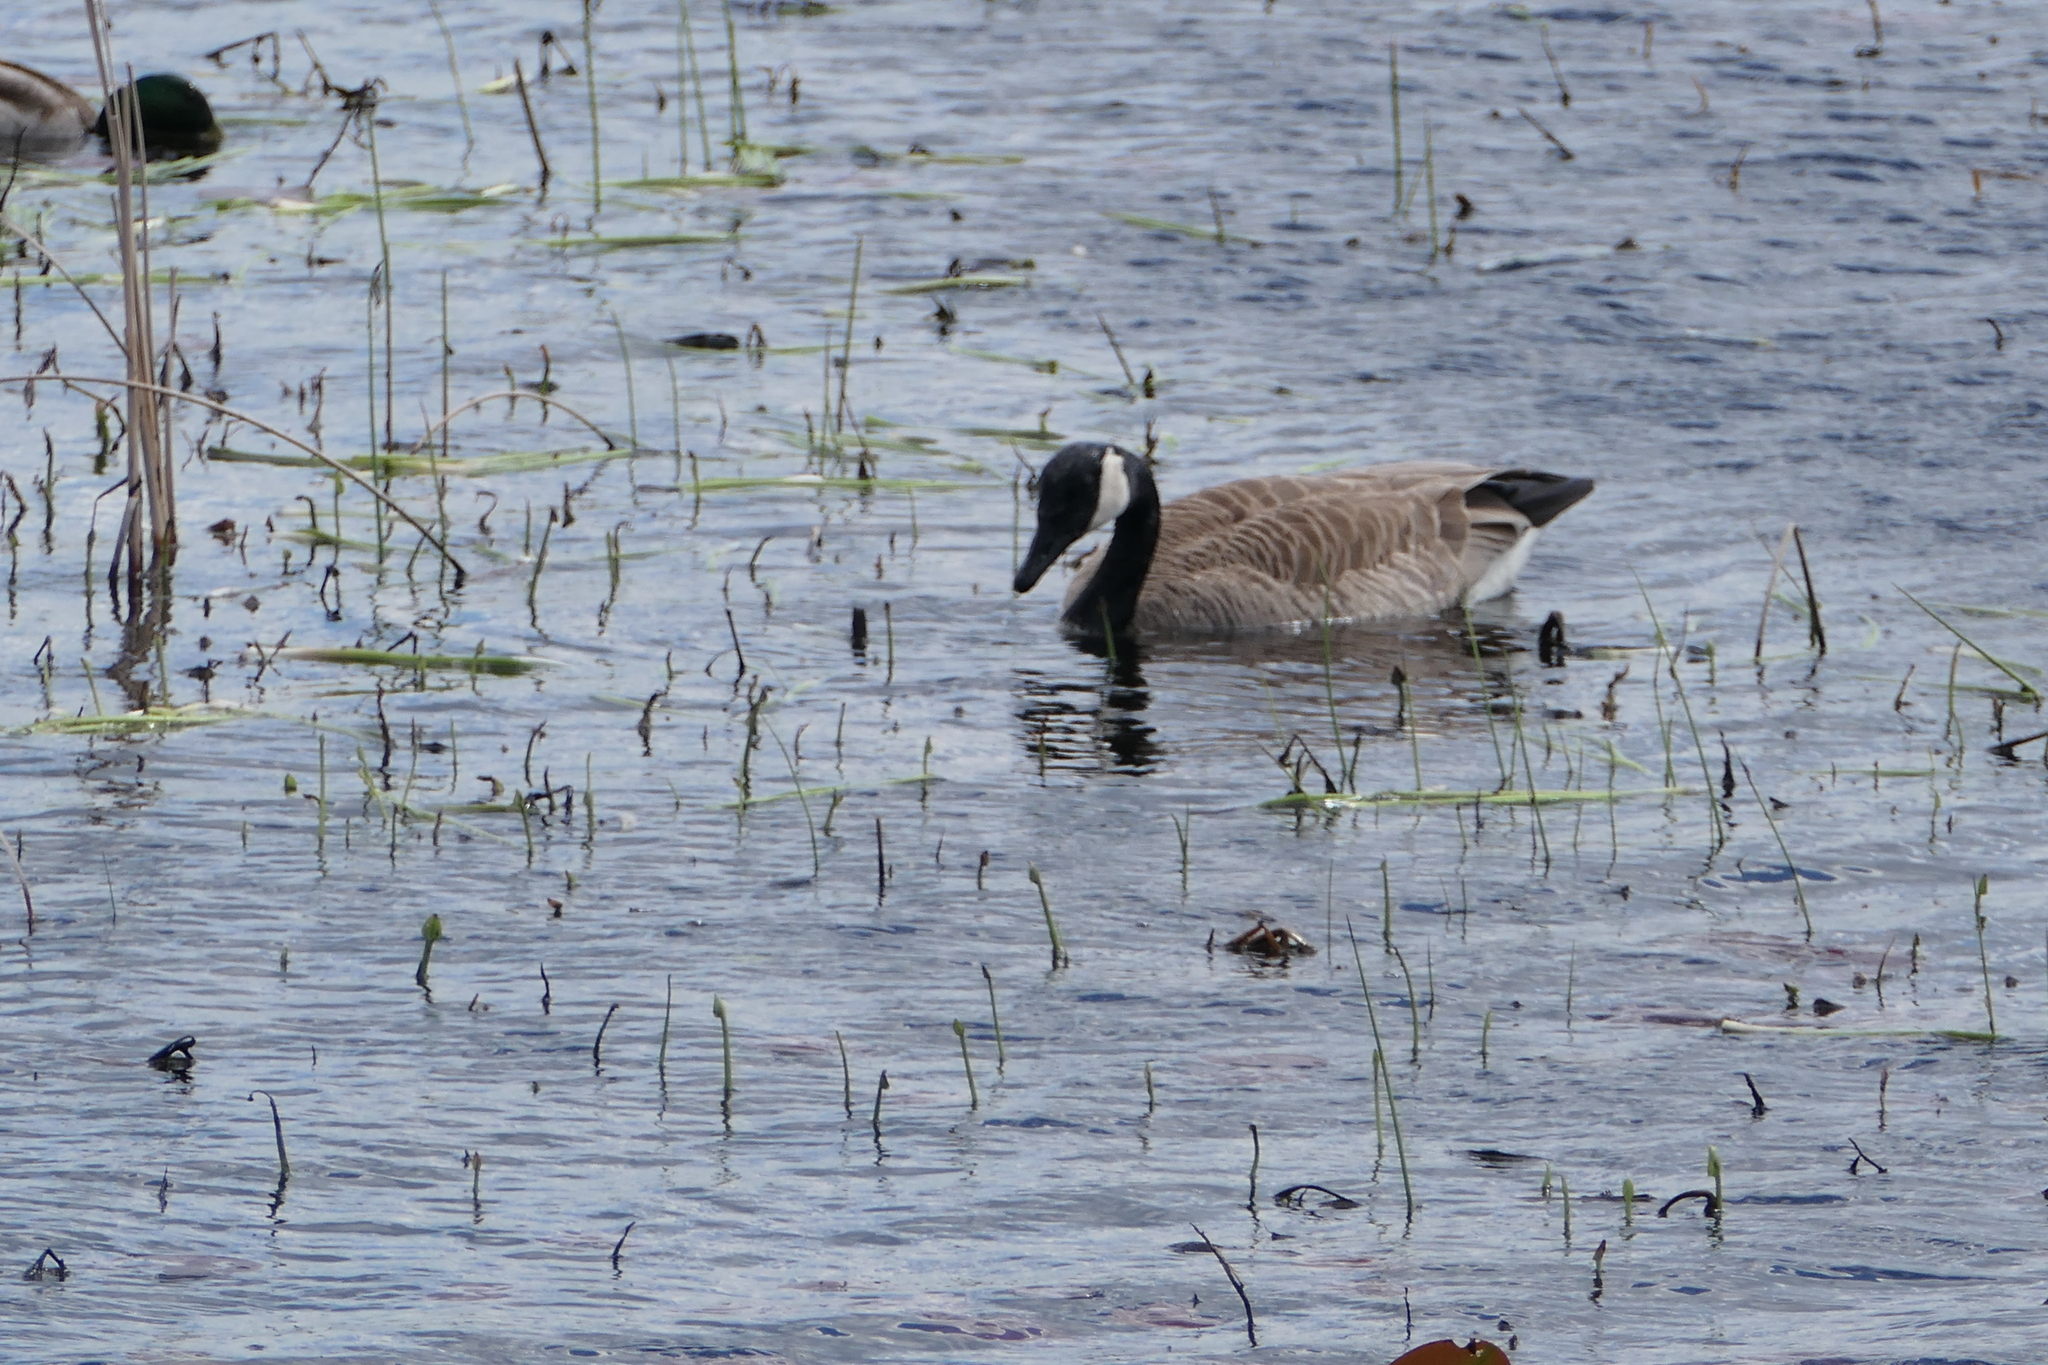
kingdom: Animalia
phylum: Chordata
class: Aves
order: Anseriformes
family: Anatidae
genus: Branta
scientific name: Branta canadensis
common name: Canada goose
